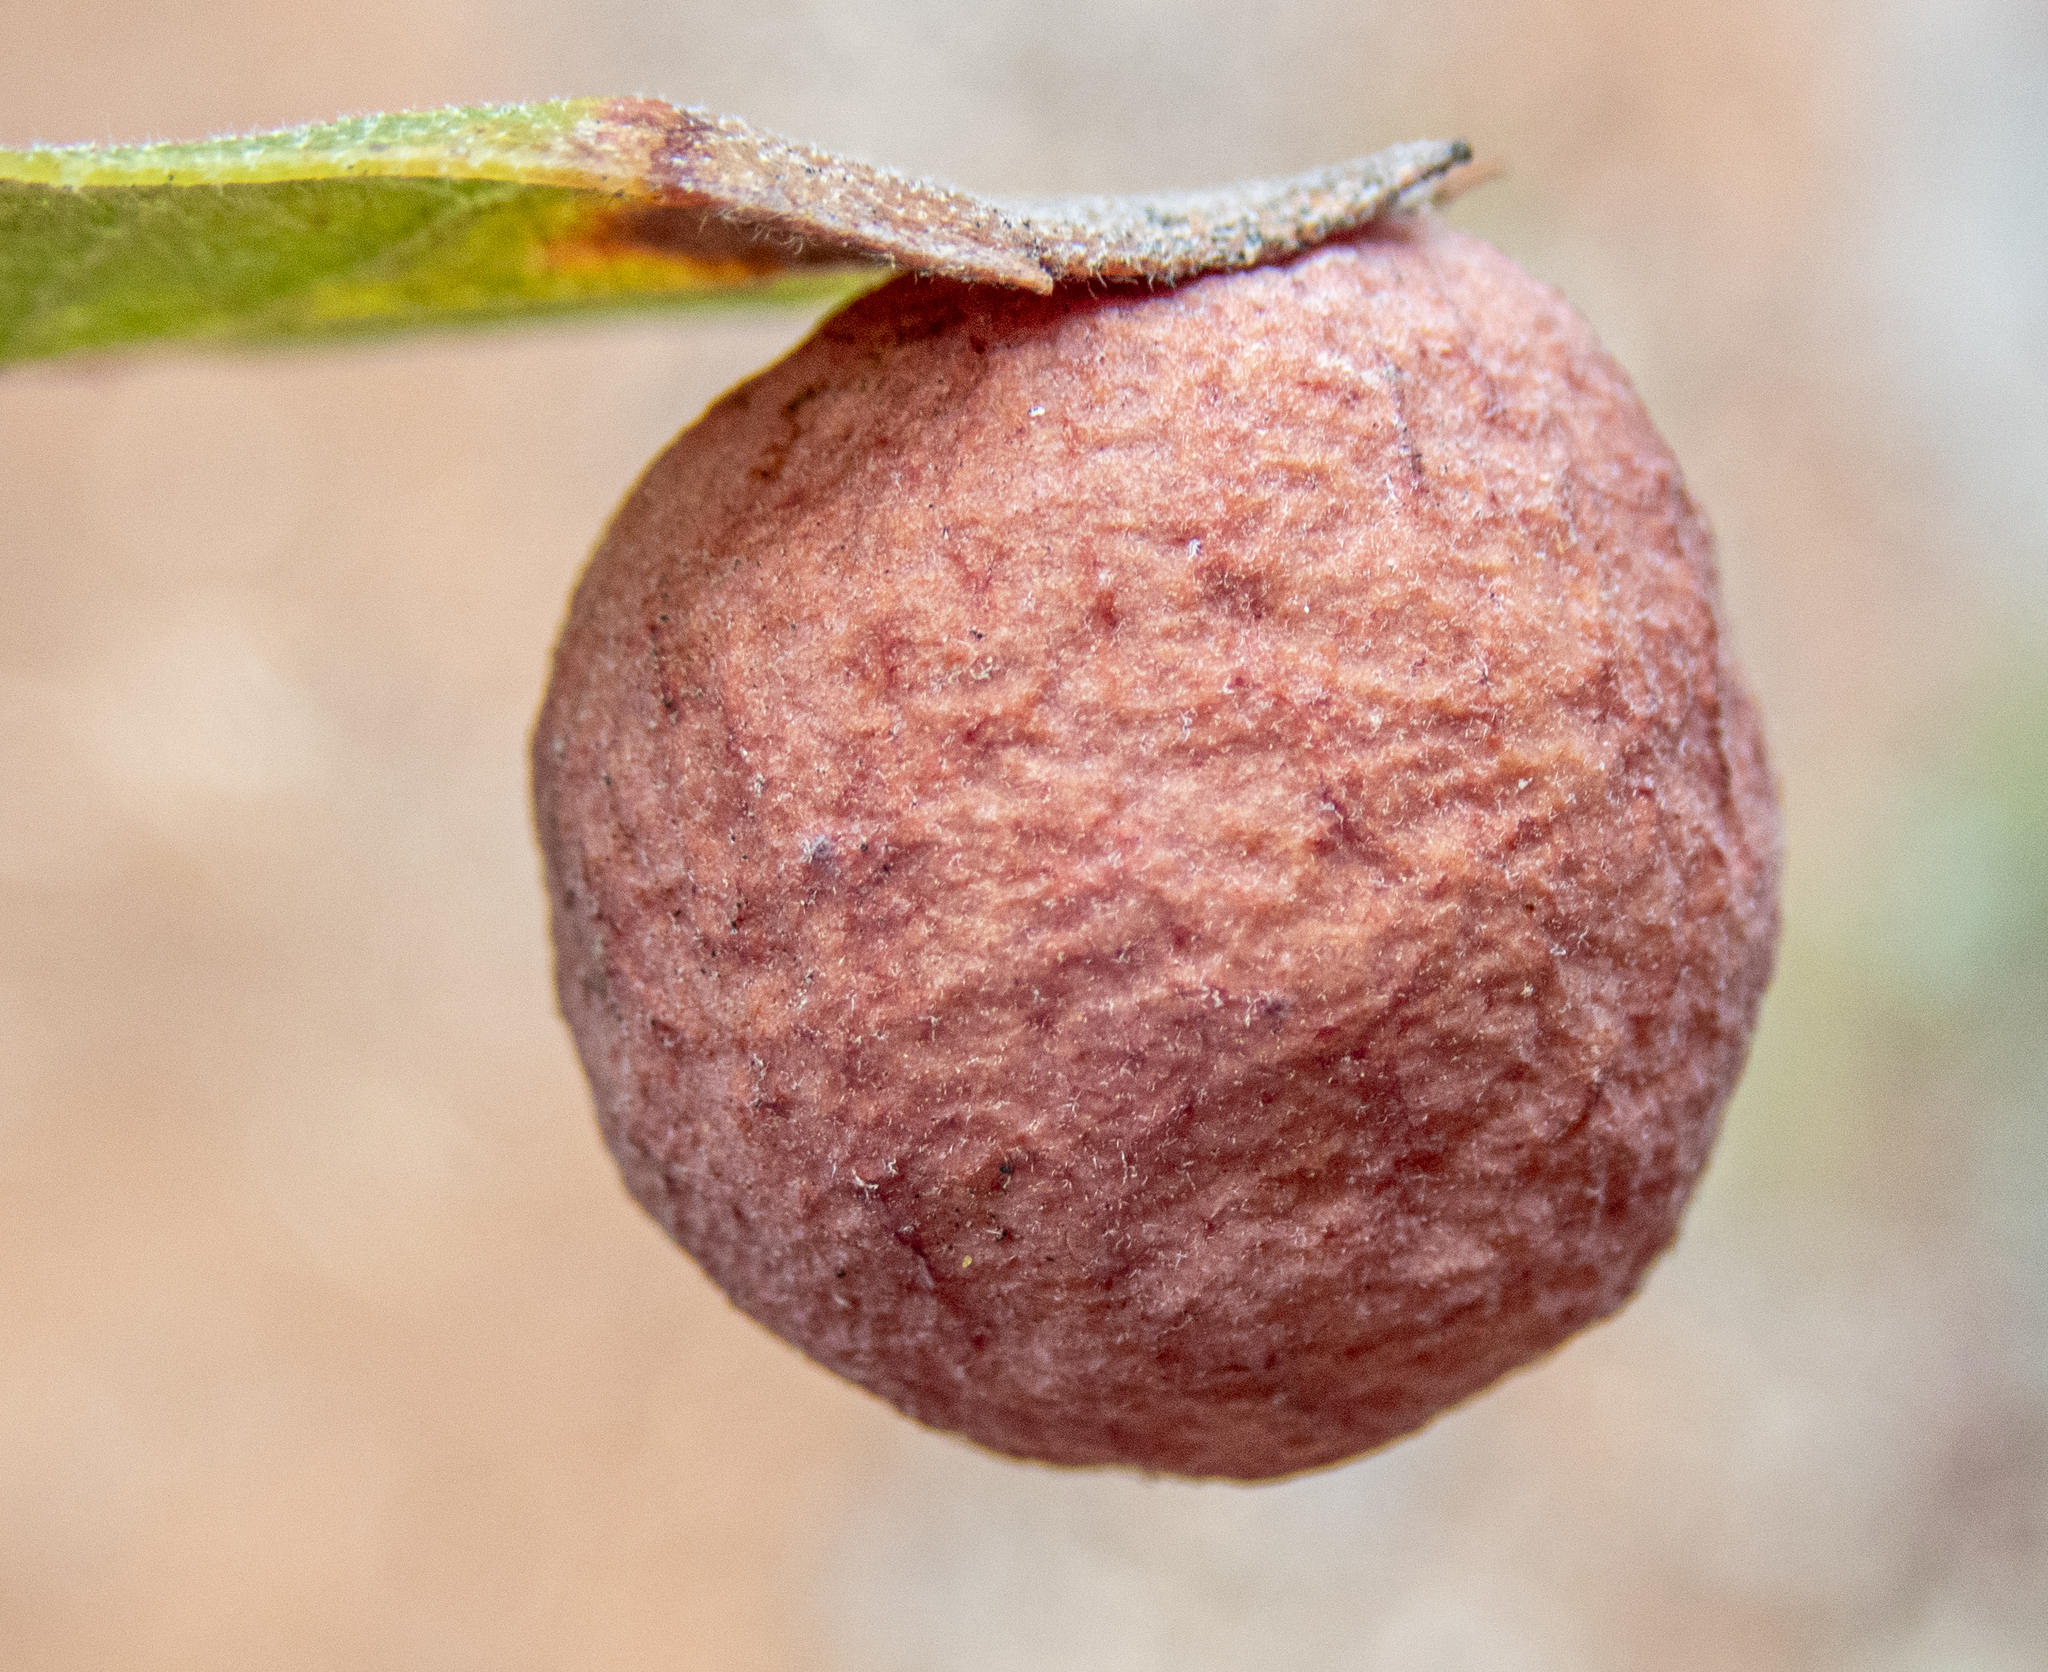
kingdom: Animalia
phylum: Arthropoda
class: Insecta
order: Hymenoptera
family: Cynipidae
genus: Atrusca
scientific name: Atrusca
